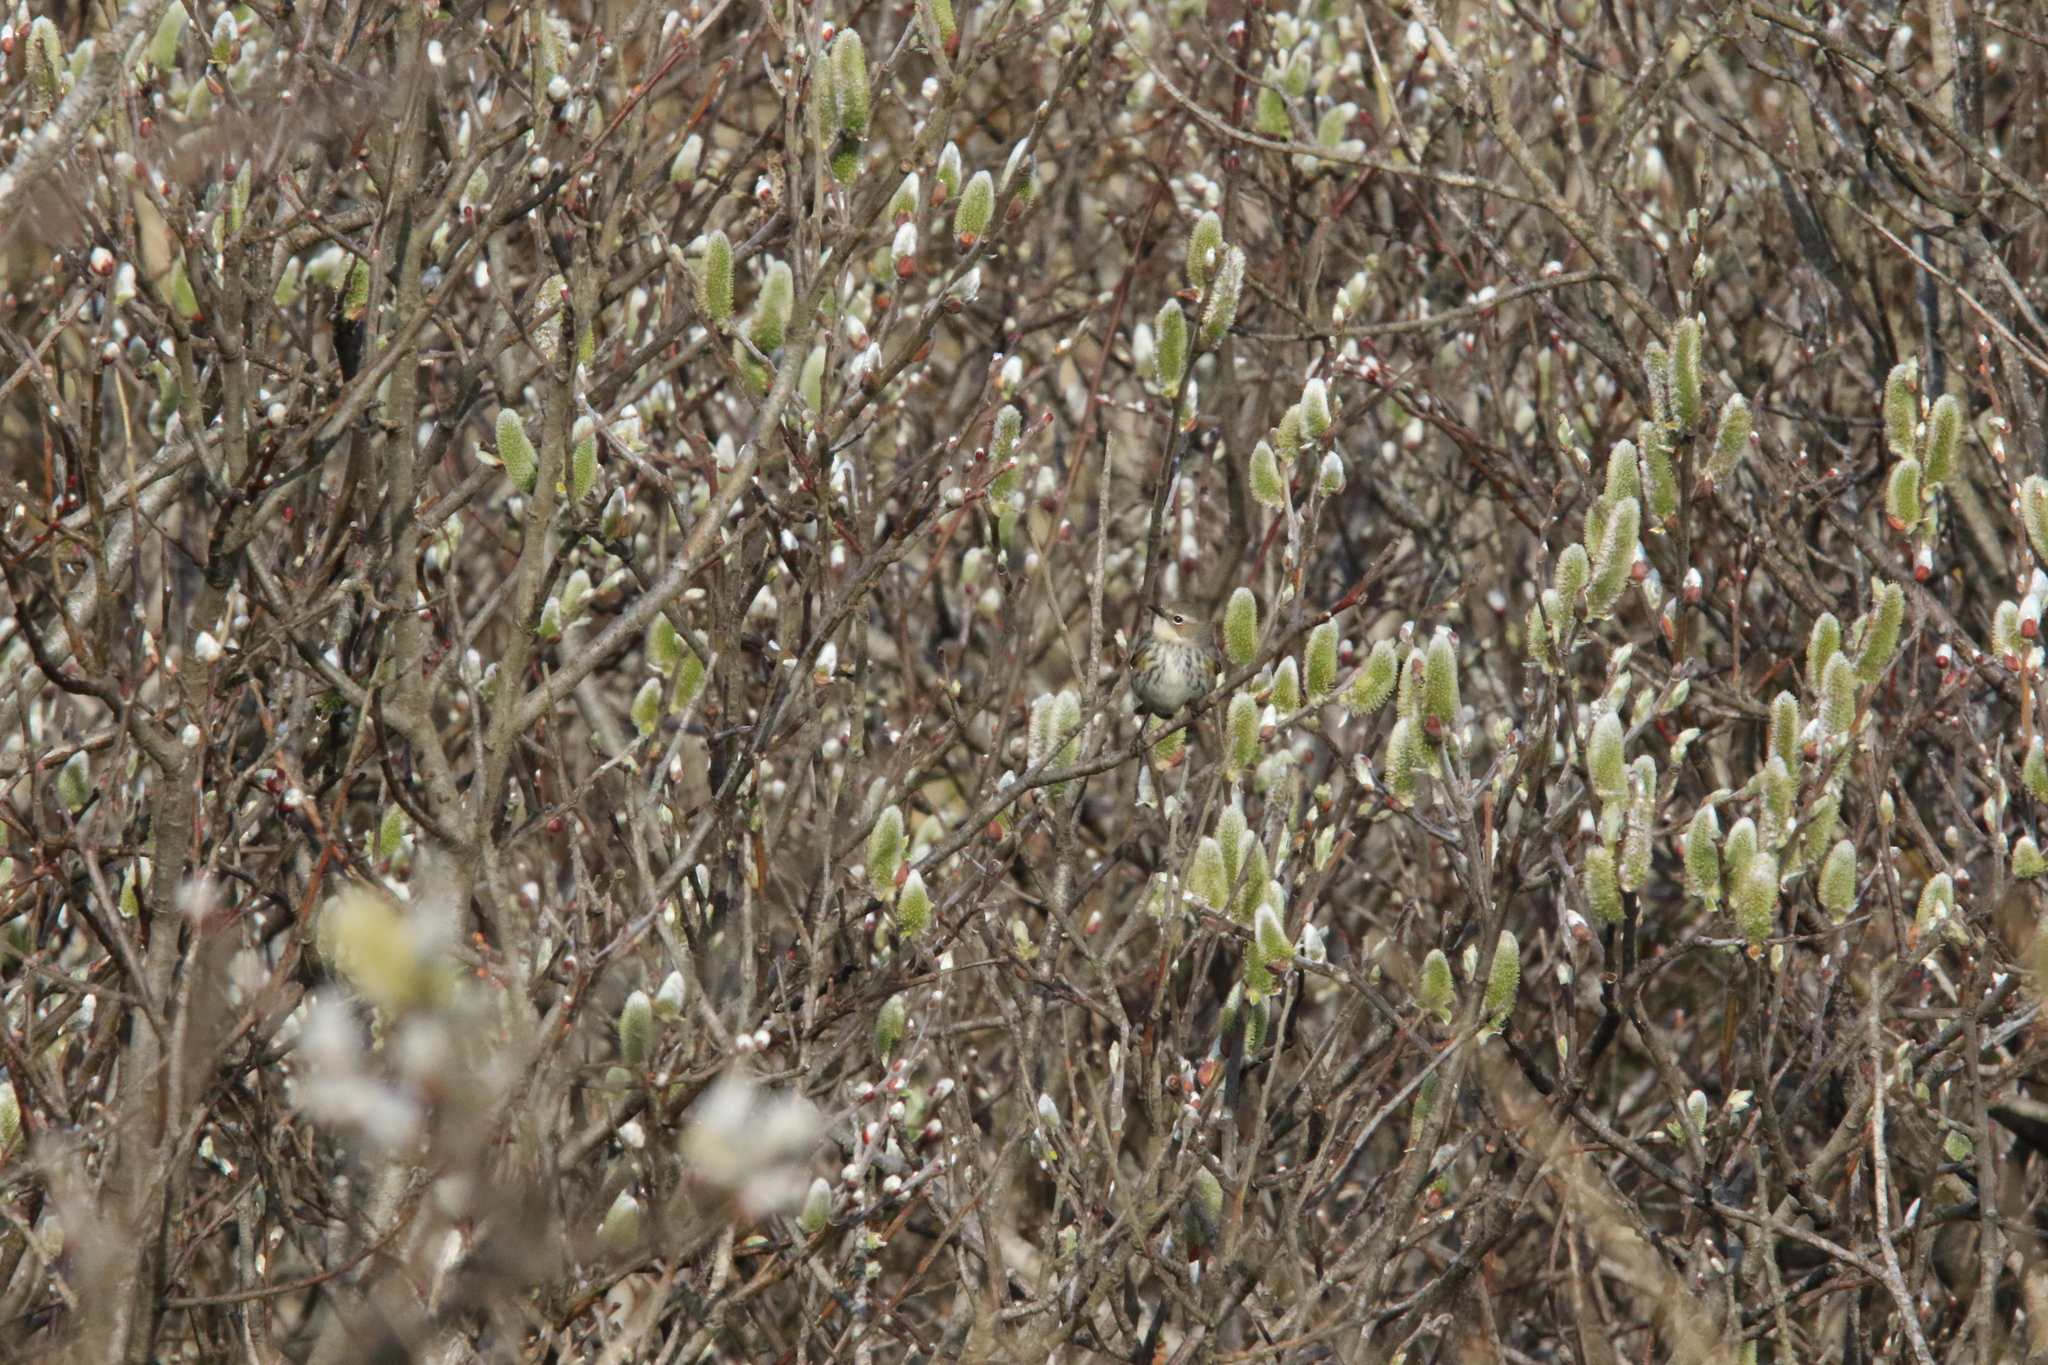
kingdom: Animalia
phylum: Chordata
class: Aves
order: Passeriformes
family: Parulidae
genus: Setophaga
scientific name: Setophaga coronata
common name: Myrtle warbler
